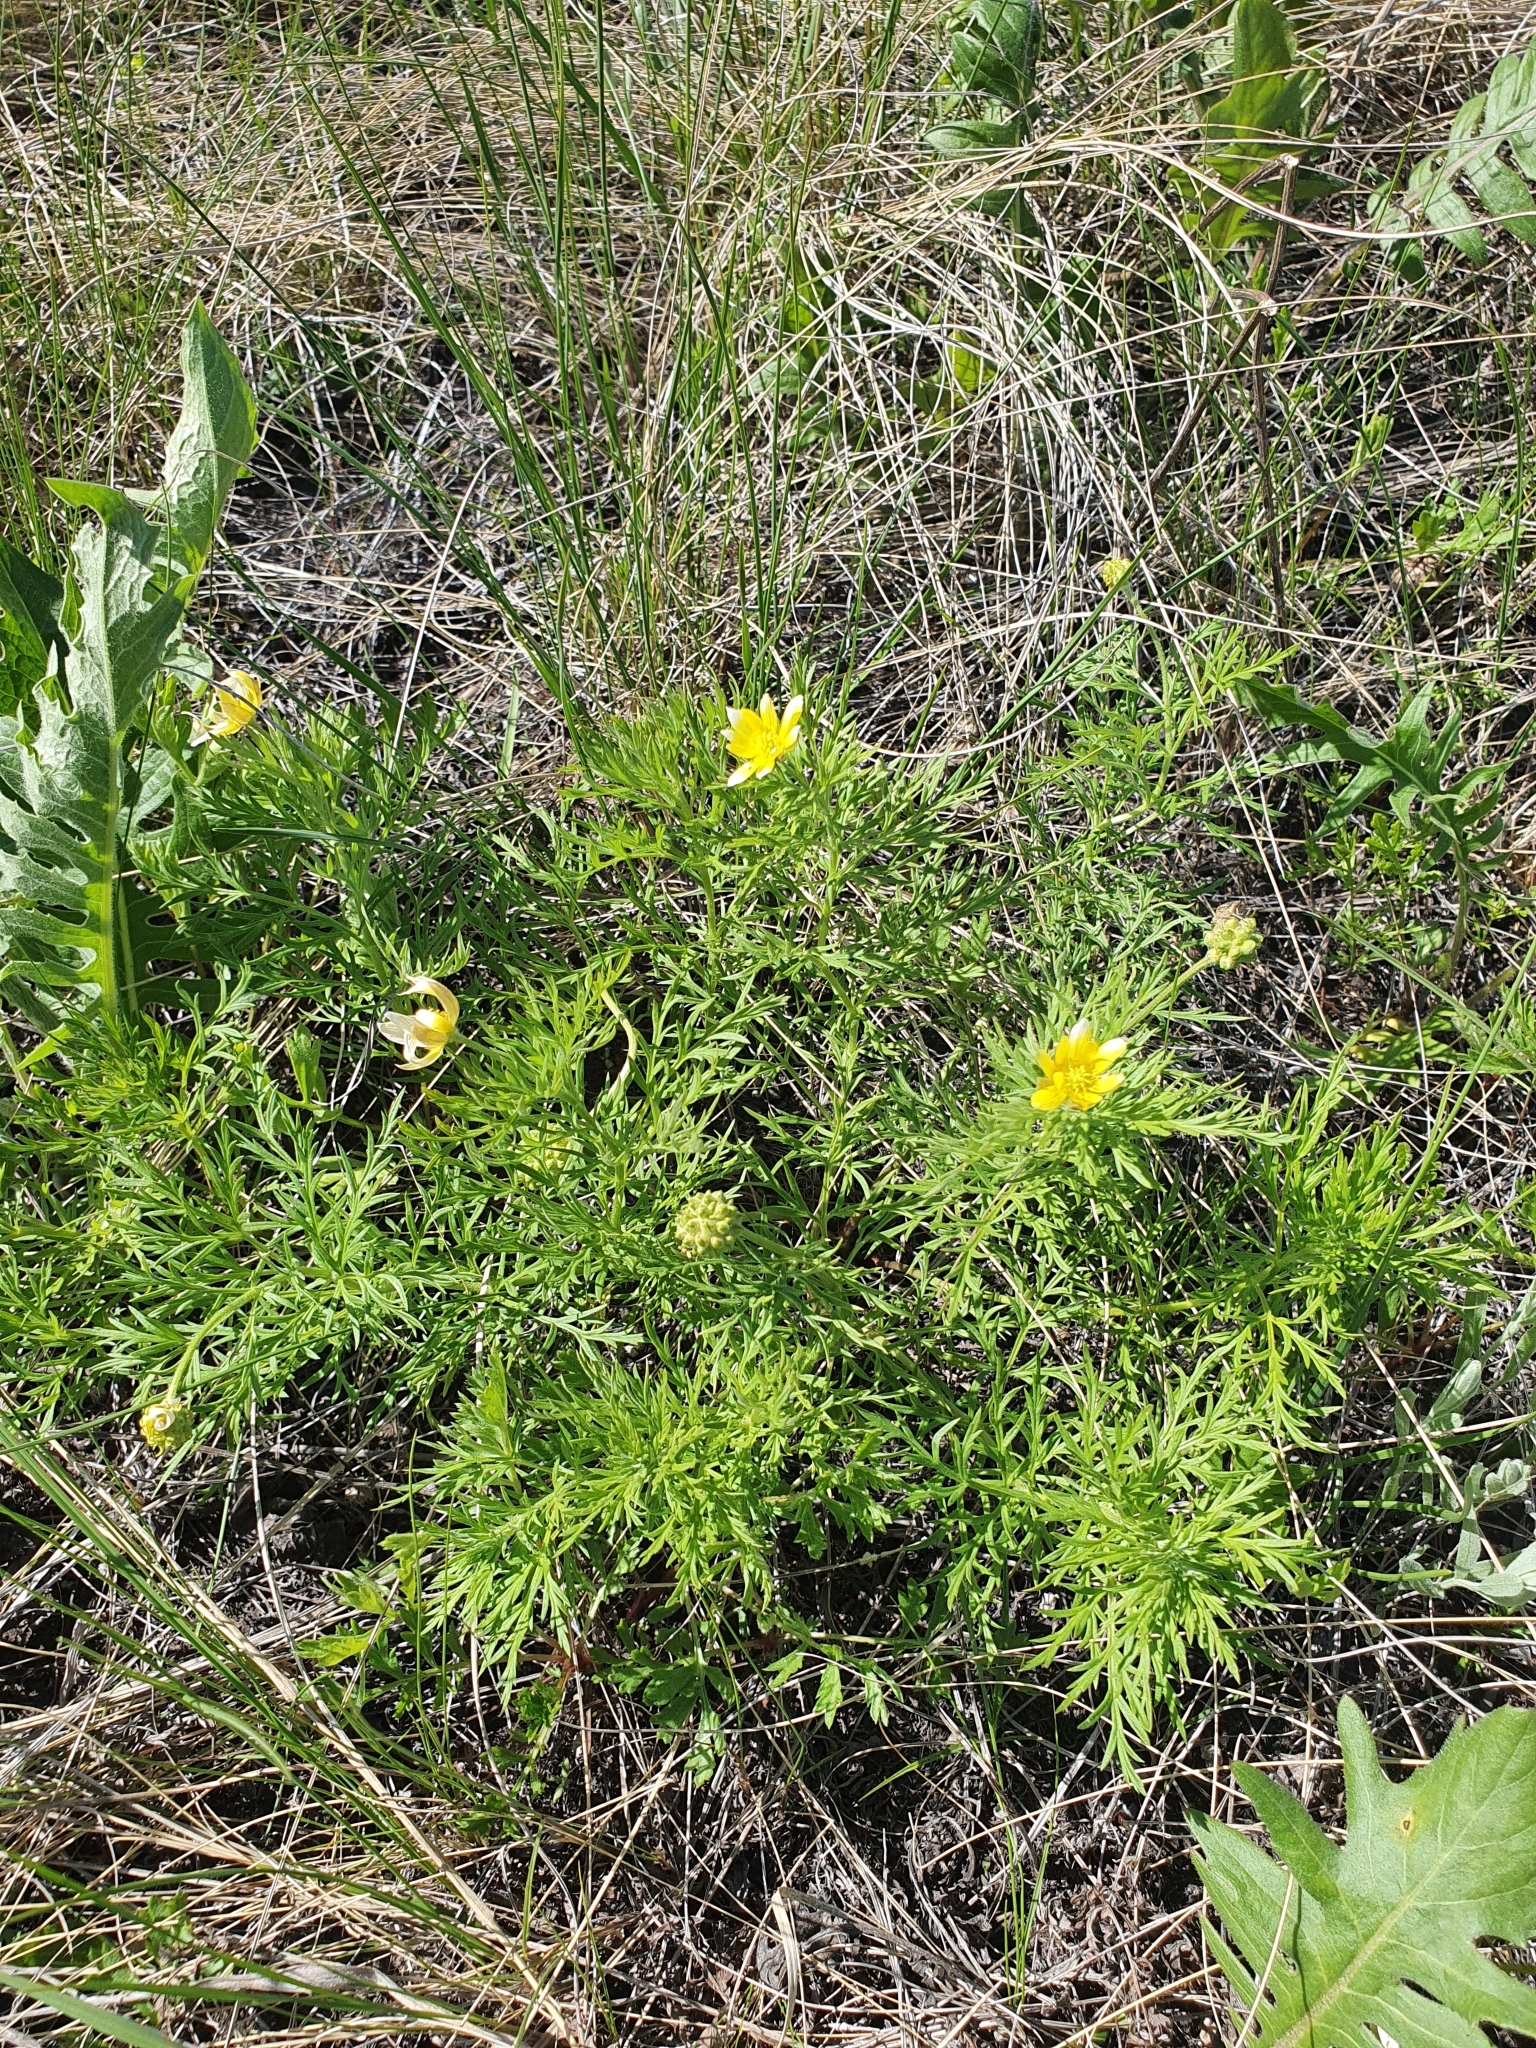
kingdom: Plantae
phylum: Tracheophyta
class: Magnoliopsida
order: Ranunculales
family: Ranunculaceae
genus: Adonis
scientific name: Adonis volgensis
